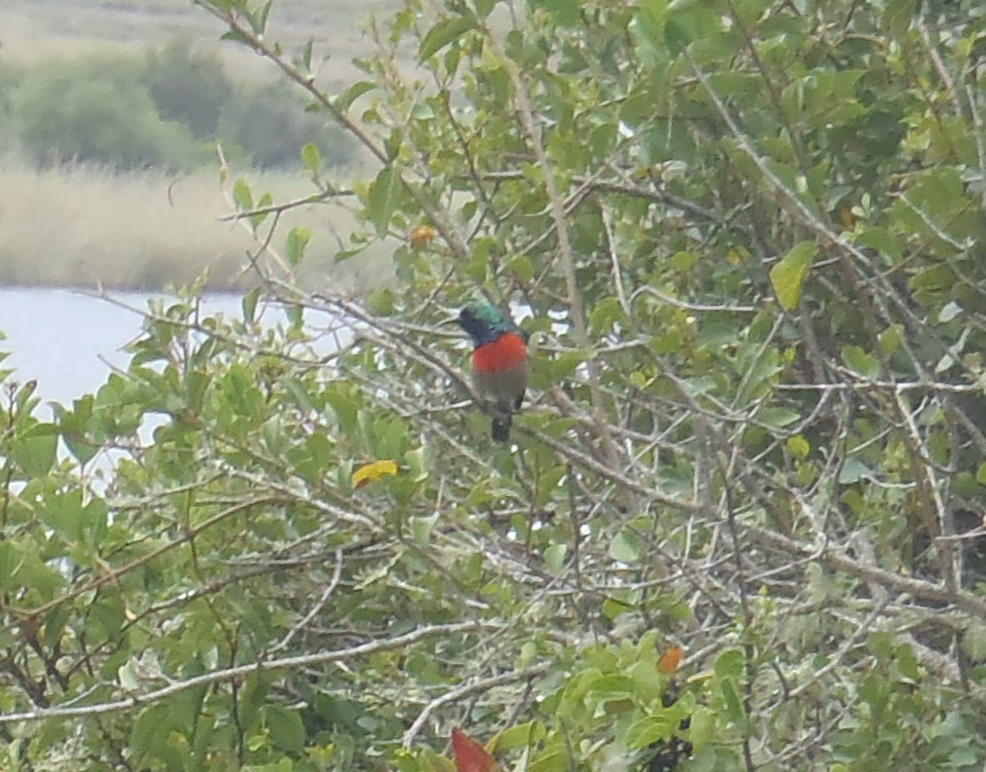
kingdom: Animalia
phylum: Chordata
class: Aves
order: Passeriformes
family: Nectariniidae
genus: Cinnyris
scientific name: Cinnyris afer
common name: Greater double-collared sunbird
